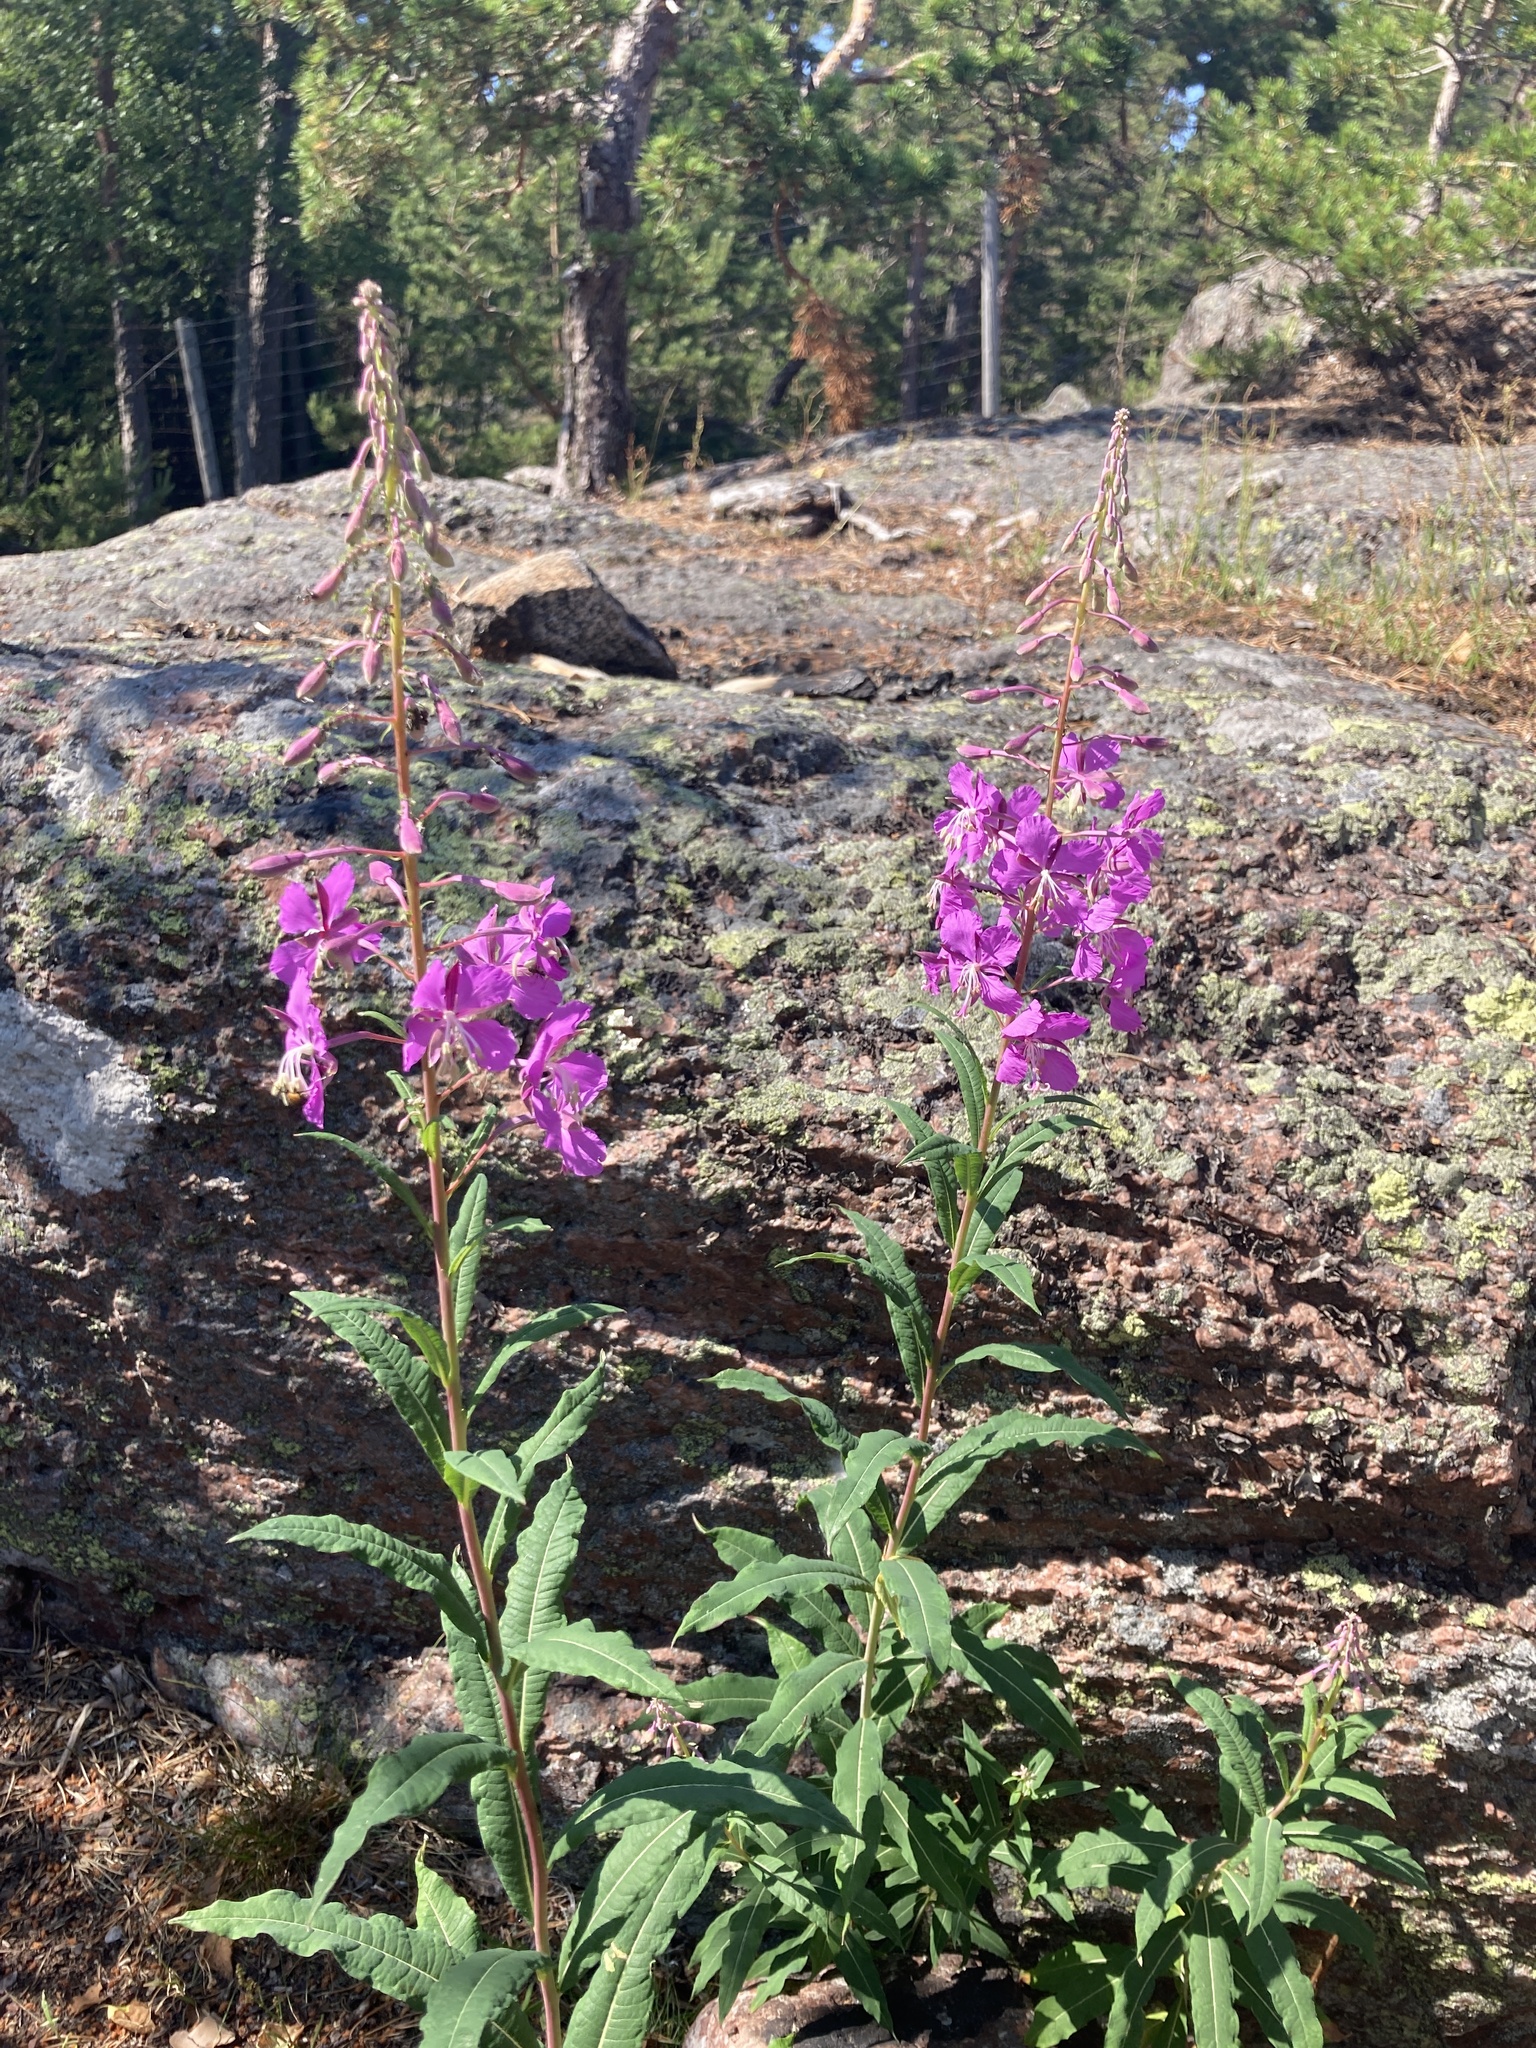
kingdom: Plantae
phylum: Tracheophyta
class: Magnoliopsida
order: Myrtales
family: Onagraceae
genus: Chamaenerion
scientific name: Chamaenerion angustifolium
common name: Fireweed
